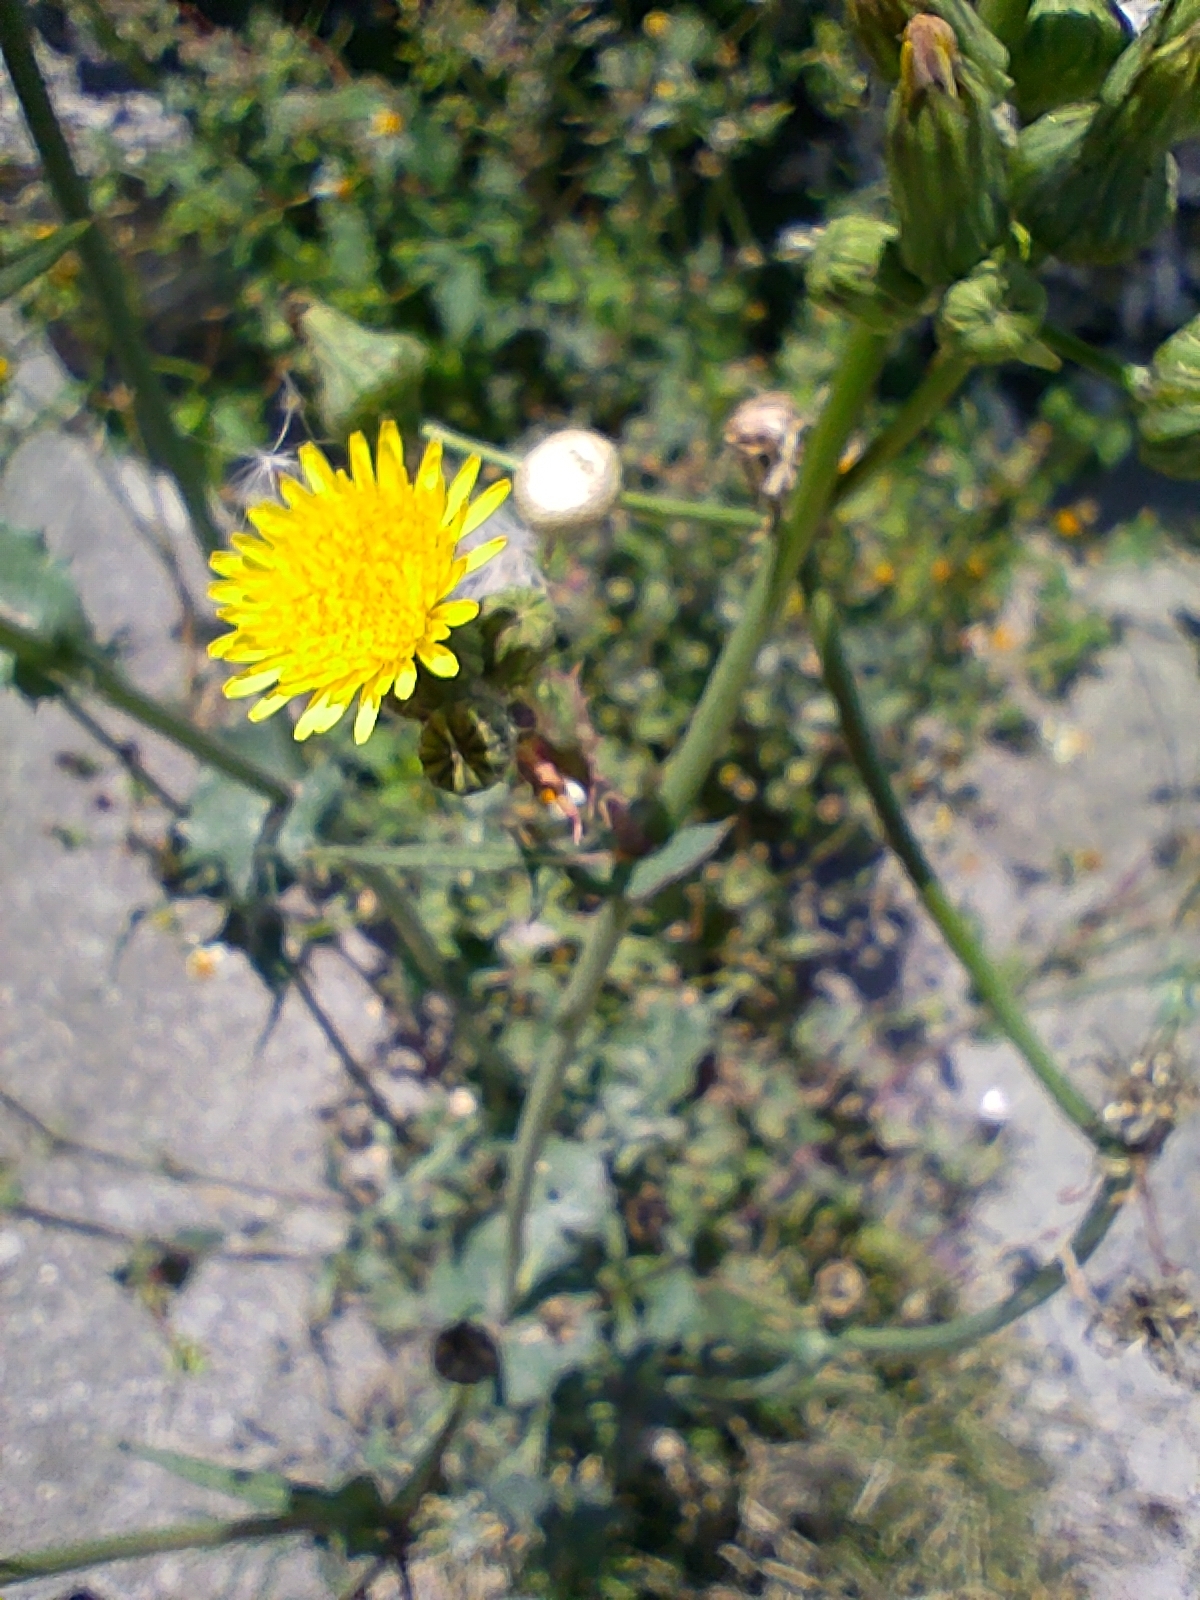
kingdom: Plantae
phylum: Tracheophyta
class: Magnoliopsida
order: Asterales
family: Asteraceae
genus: Sonchus
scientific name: Sonchus oleraceus
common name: Common sowthistle
